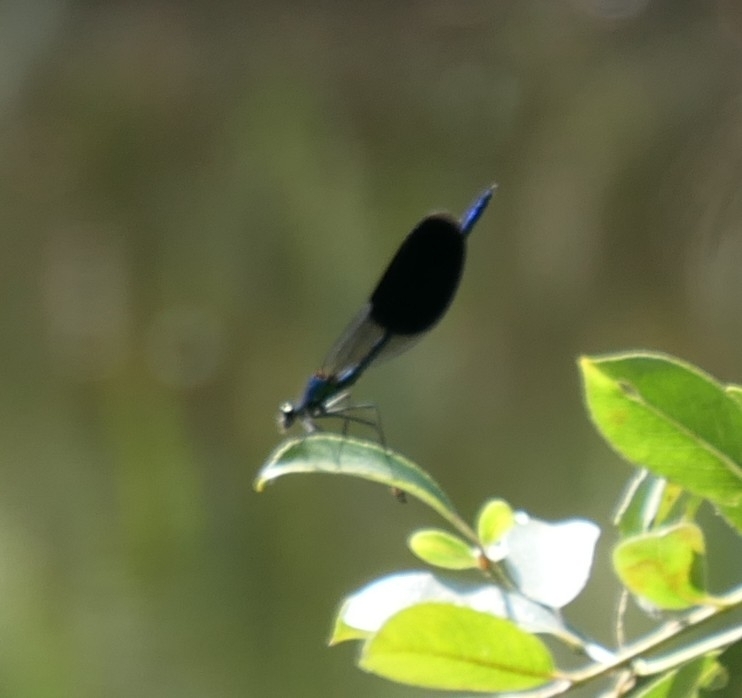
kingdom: Animalia
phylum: Arthropoda
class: Insecta
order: Odonata
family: Calopterygidae
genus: Calopteryx
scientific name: Calopteryx splendens
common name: Banded demoiselle
